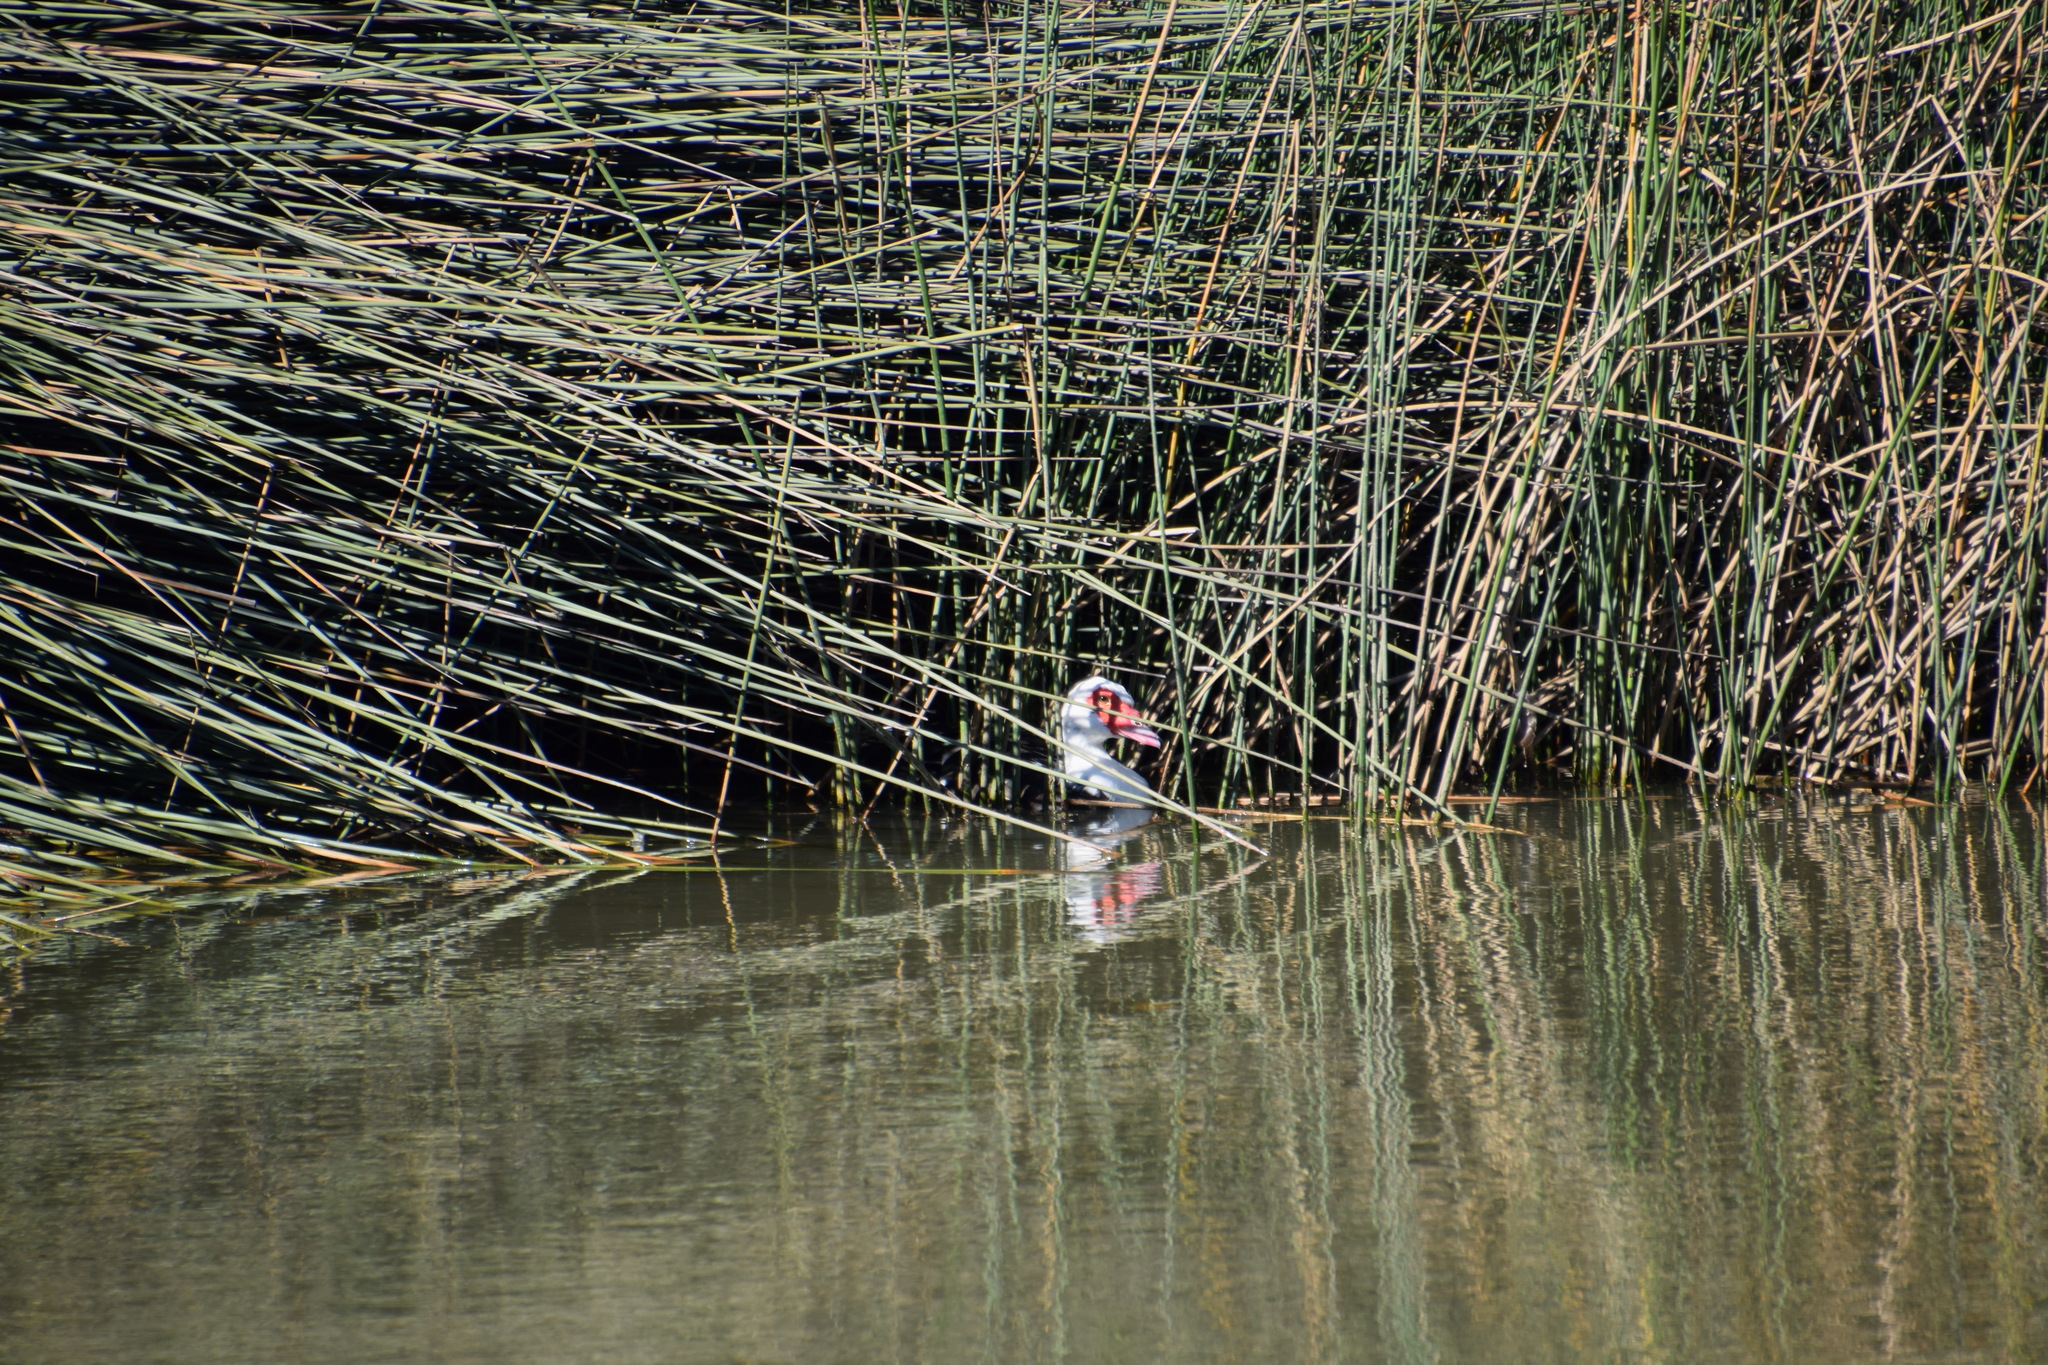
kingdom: Animalia
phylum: Chordata
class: Aves
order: Anseriformes
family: Anatidae
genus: Cairina
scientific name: Cairina moschata
